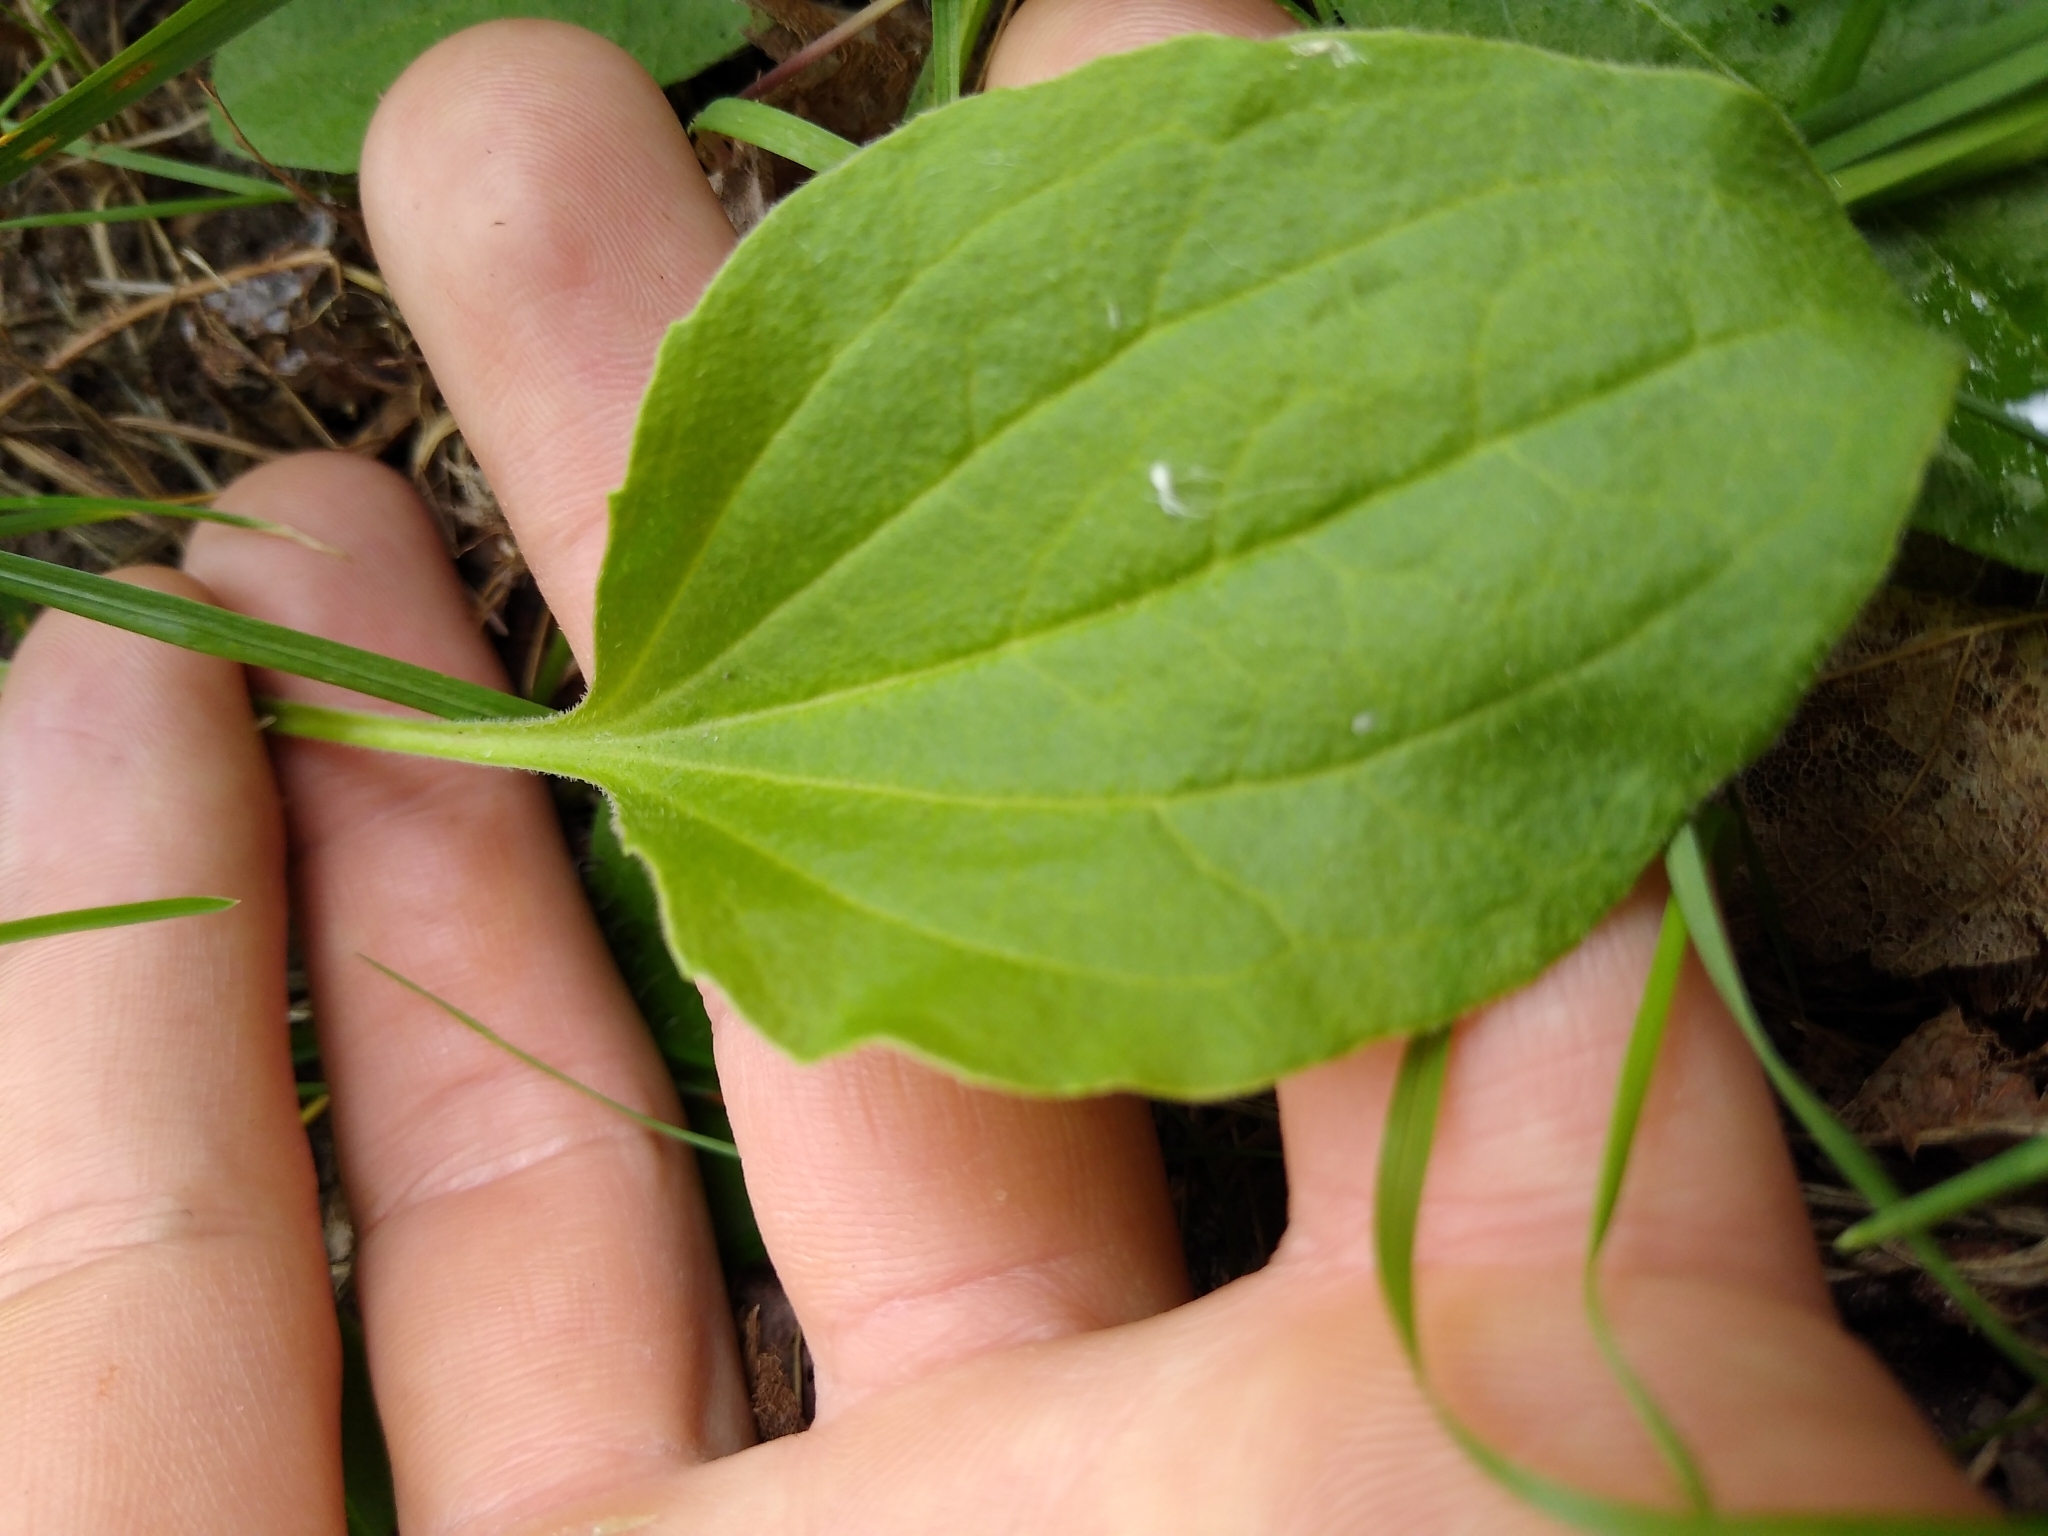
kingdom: Plantae
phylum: Tracheophyta
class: Magnoliopsida
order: Lamiales
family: Plantaginaceae
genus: Plantago
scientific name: Plantago major
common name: Common plantain
